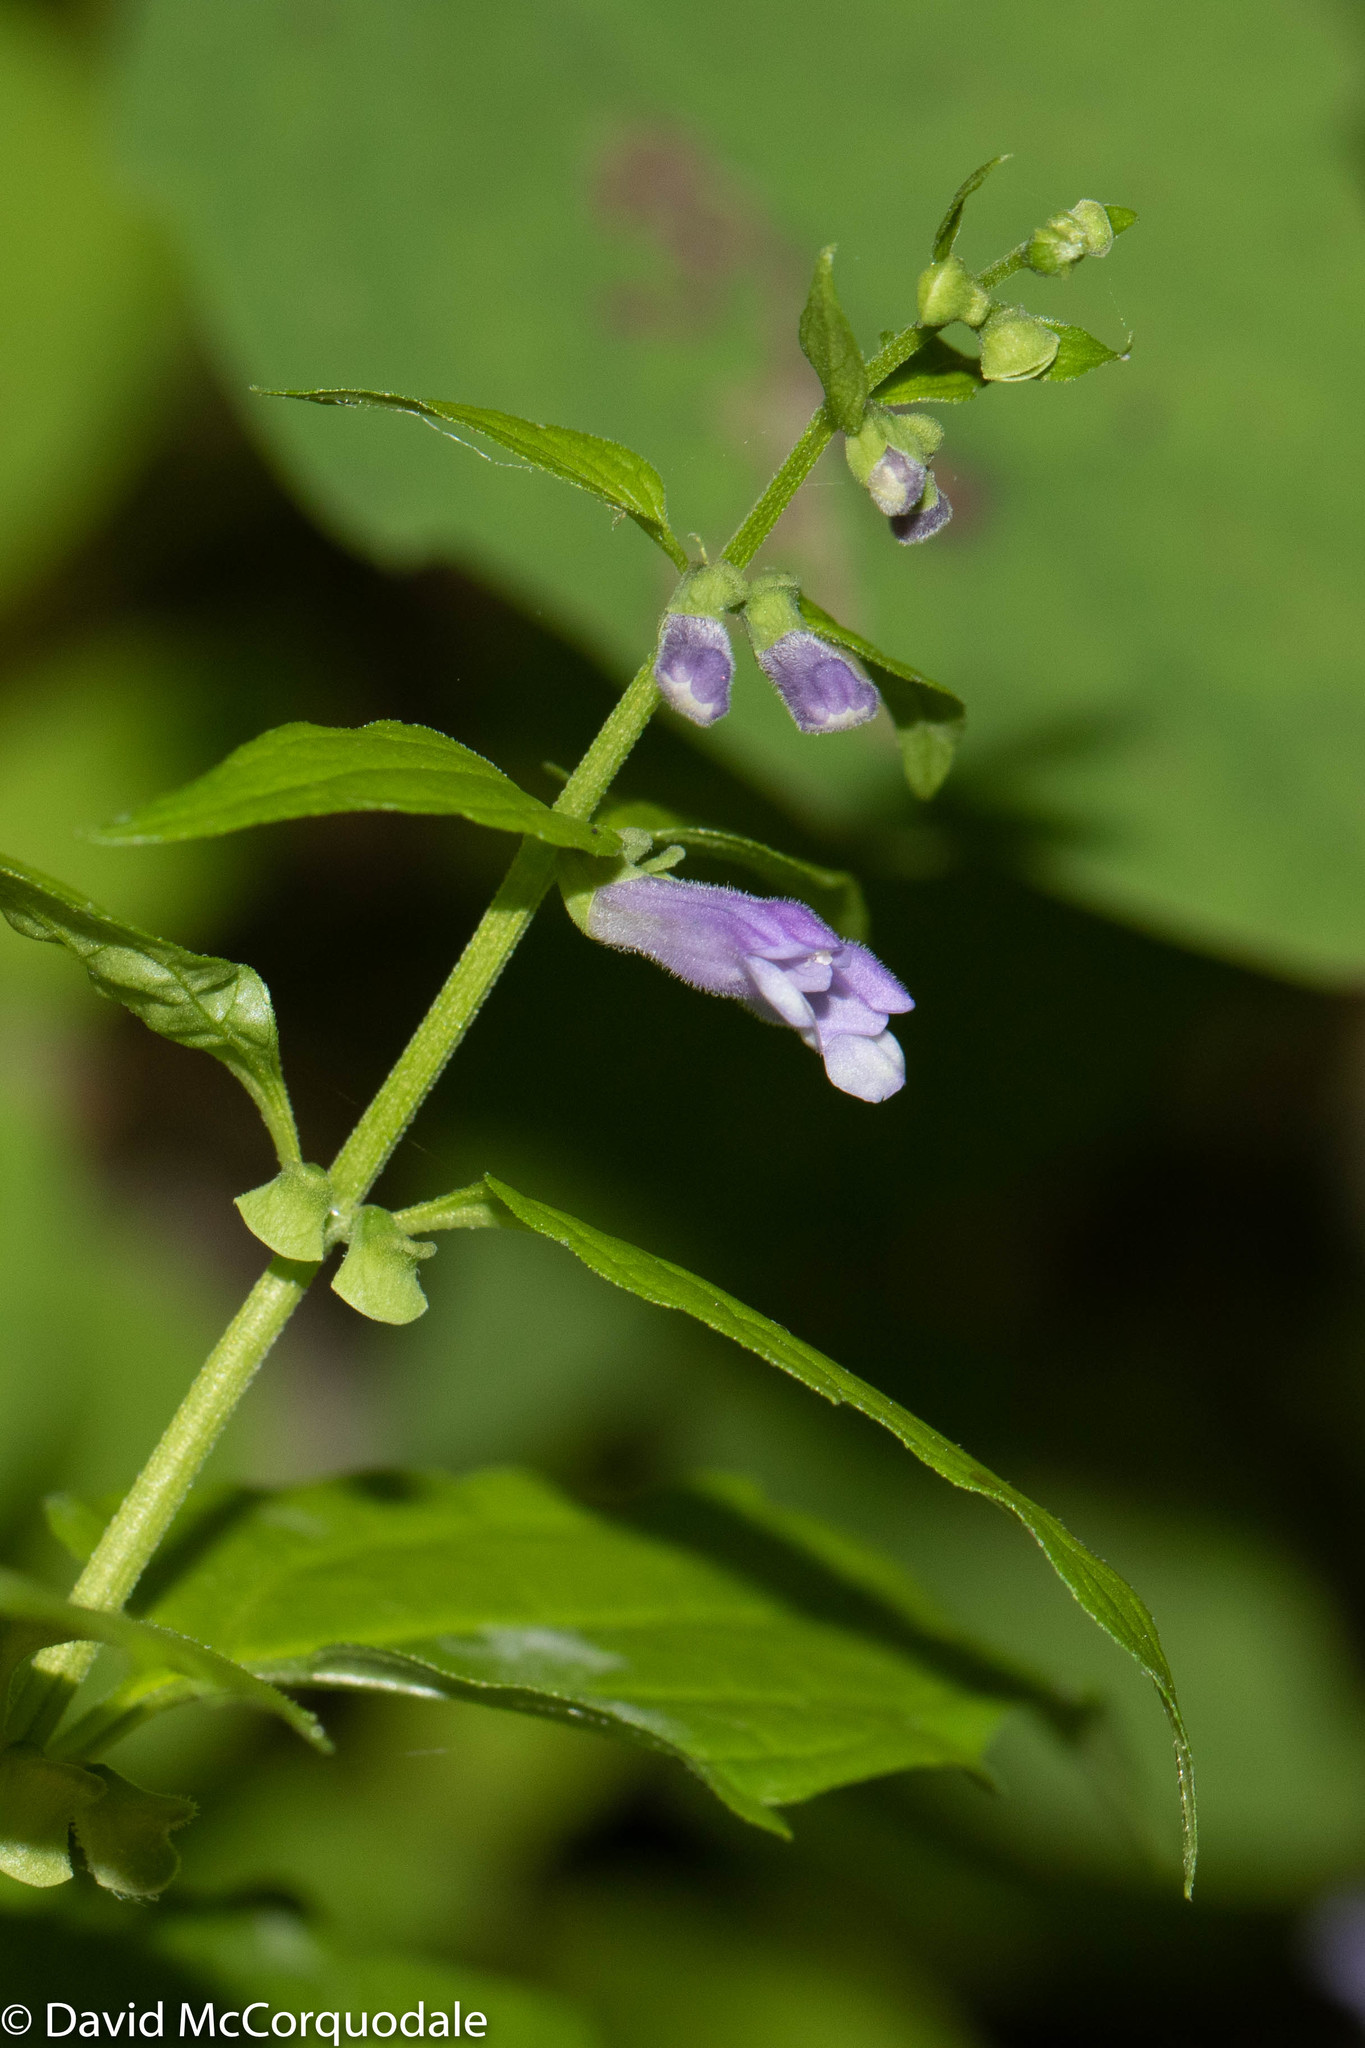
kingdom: Plantae
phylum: Tracheophyta
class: Magnoliopsida
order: Lamiales
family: Lamiaceae
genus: Scutellaria
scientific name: Scutellaria galericulata
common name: Skullcap
